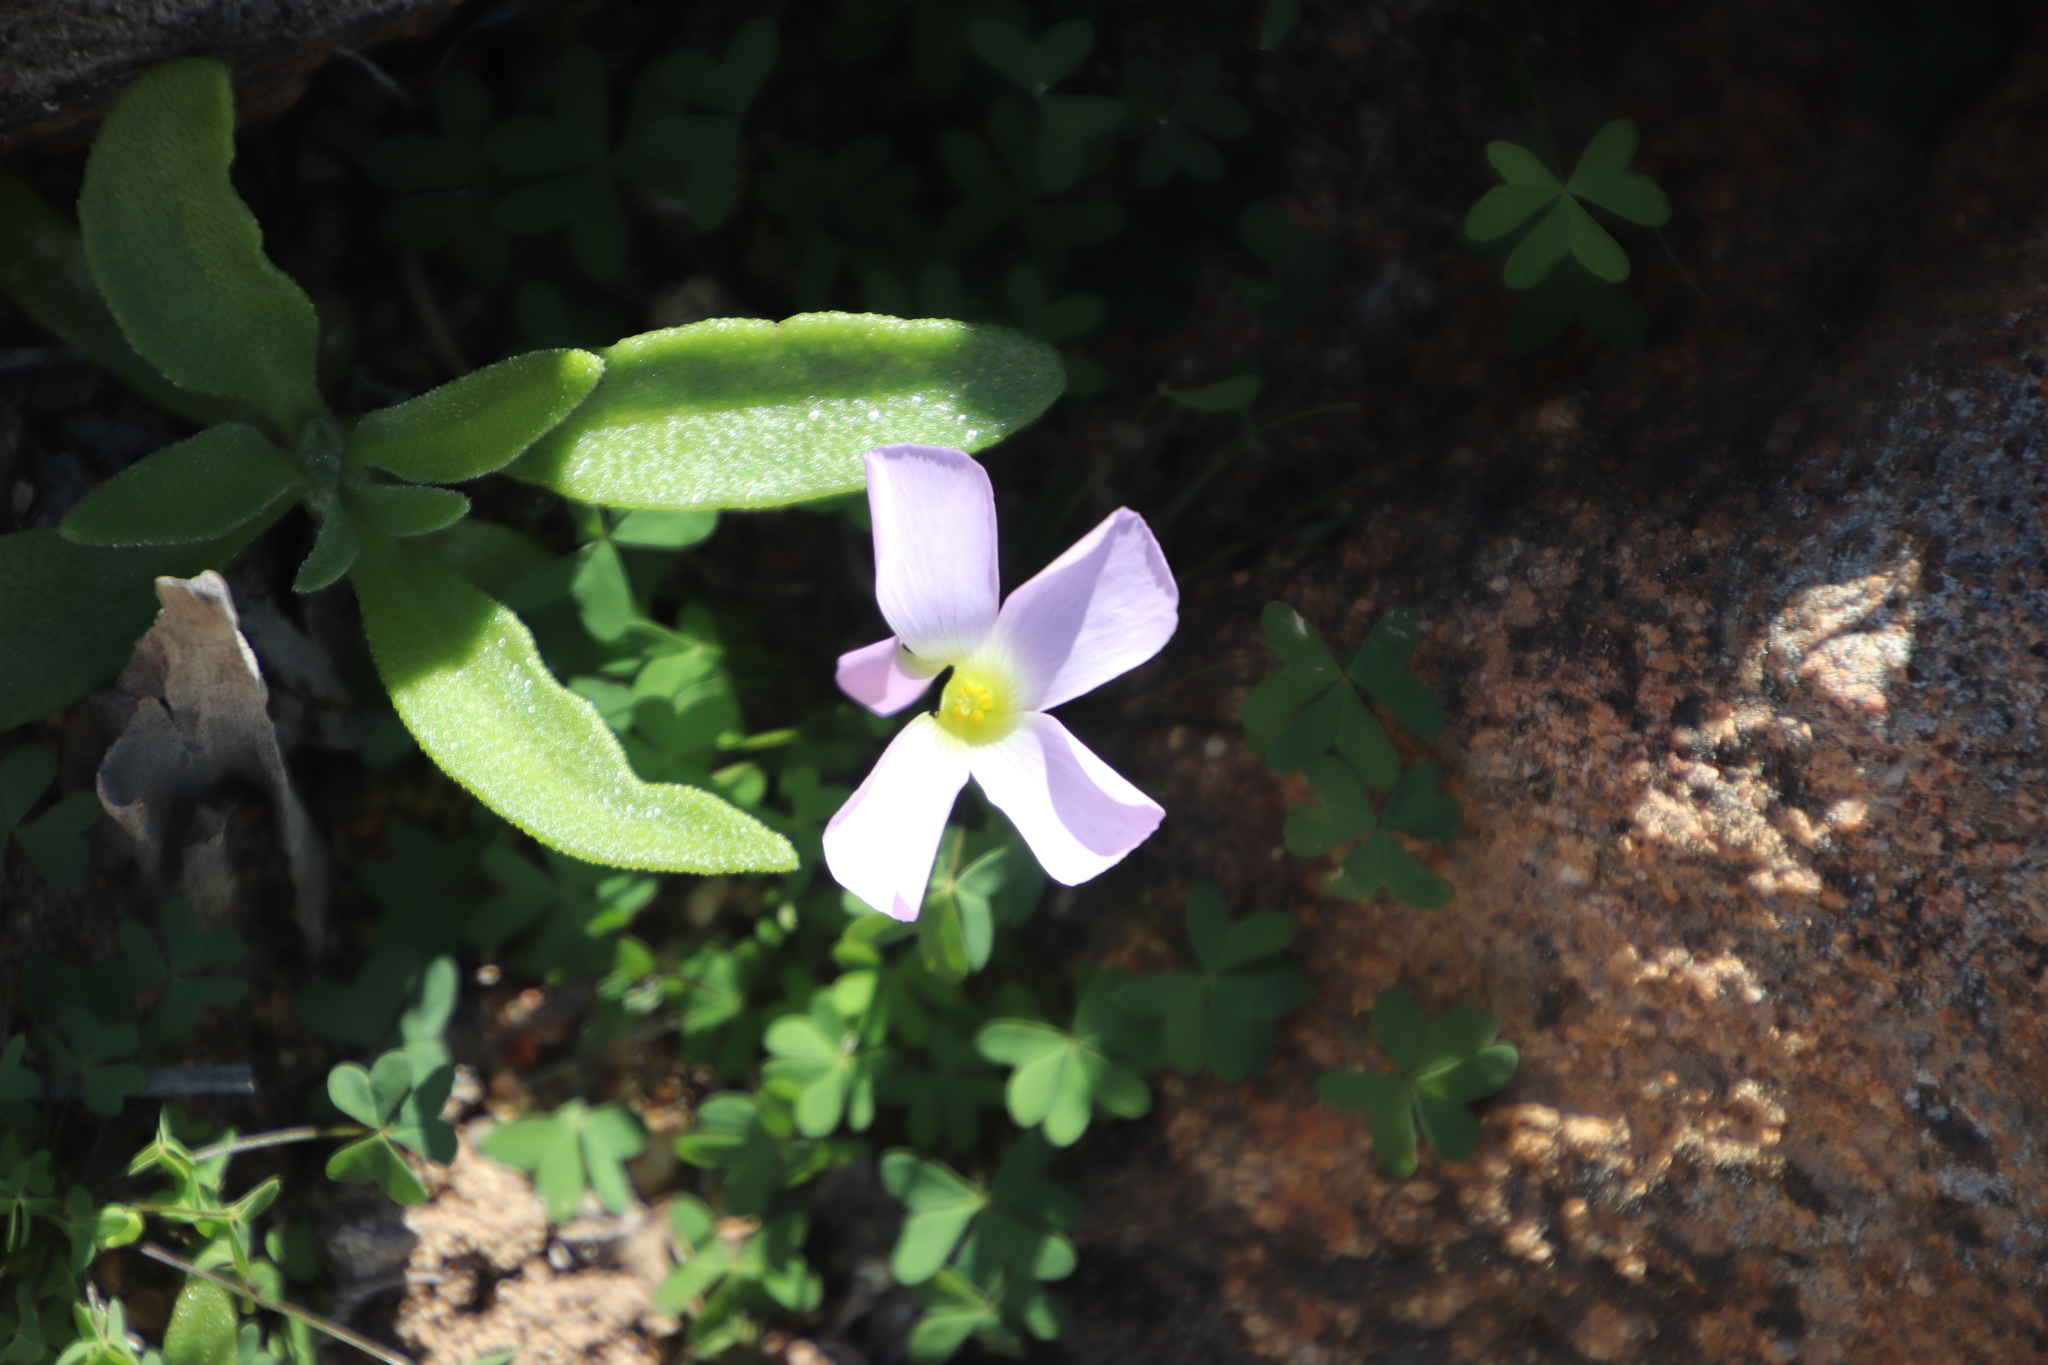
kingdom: Plantae
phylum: Tracheophyta
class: Magnoliopsida
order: Oxalidales
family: Oxalidaceae
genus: Oxalis
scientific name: Oxalis comosa
